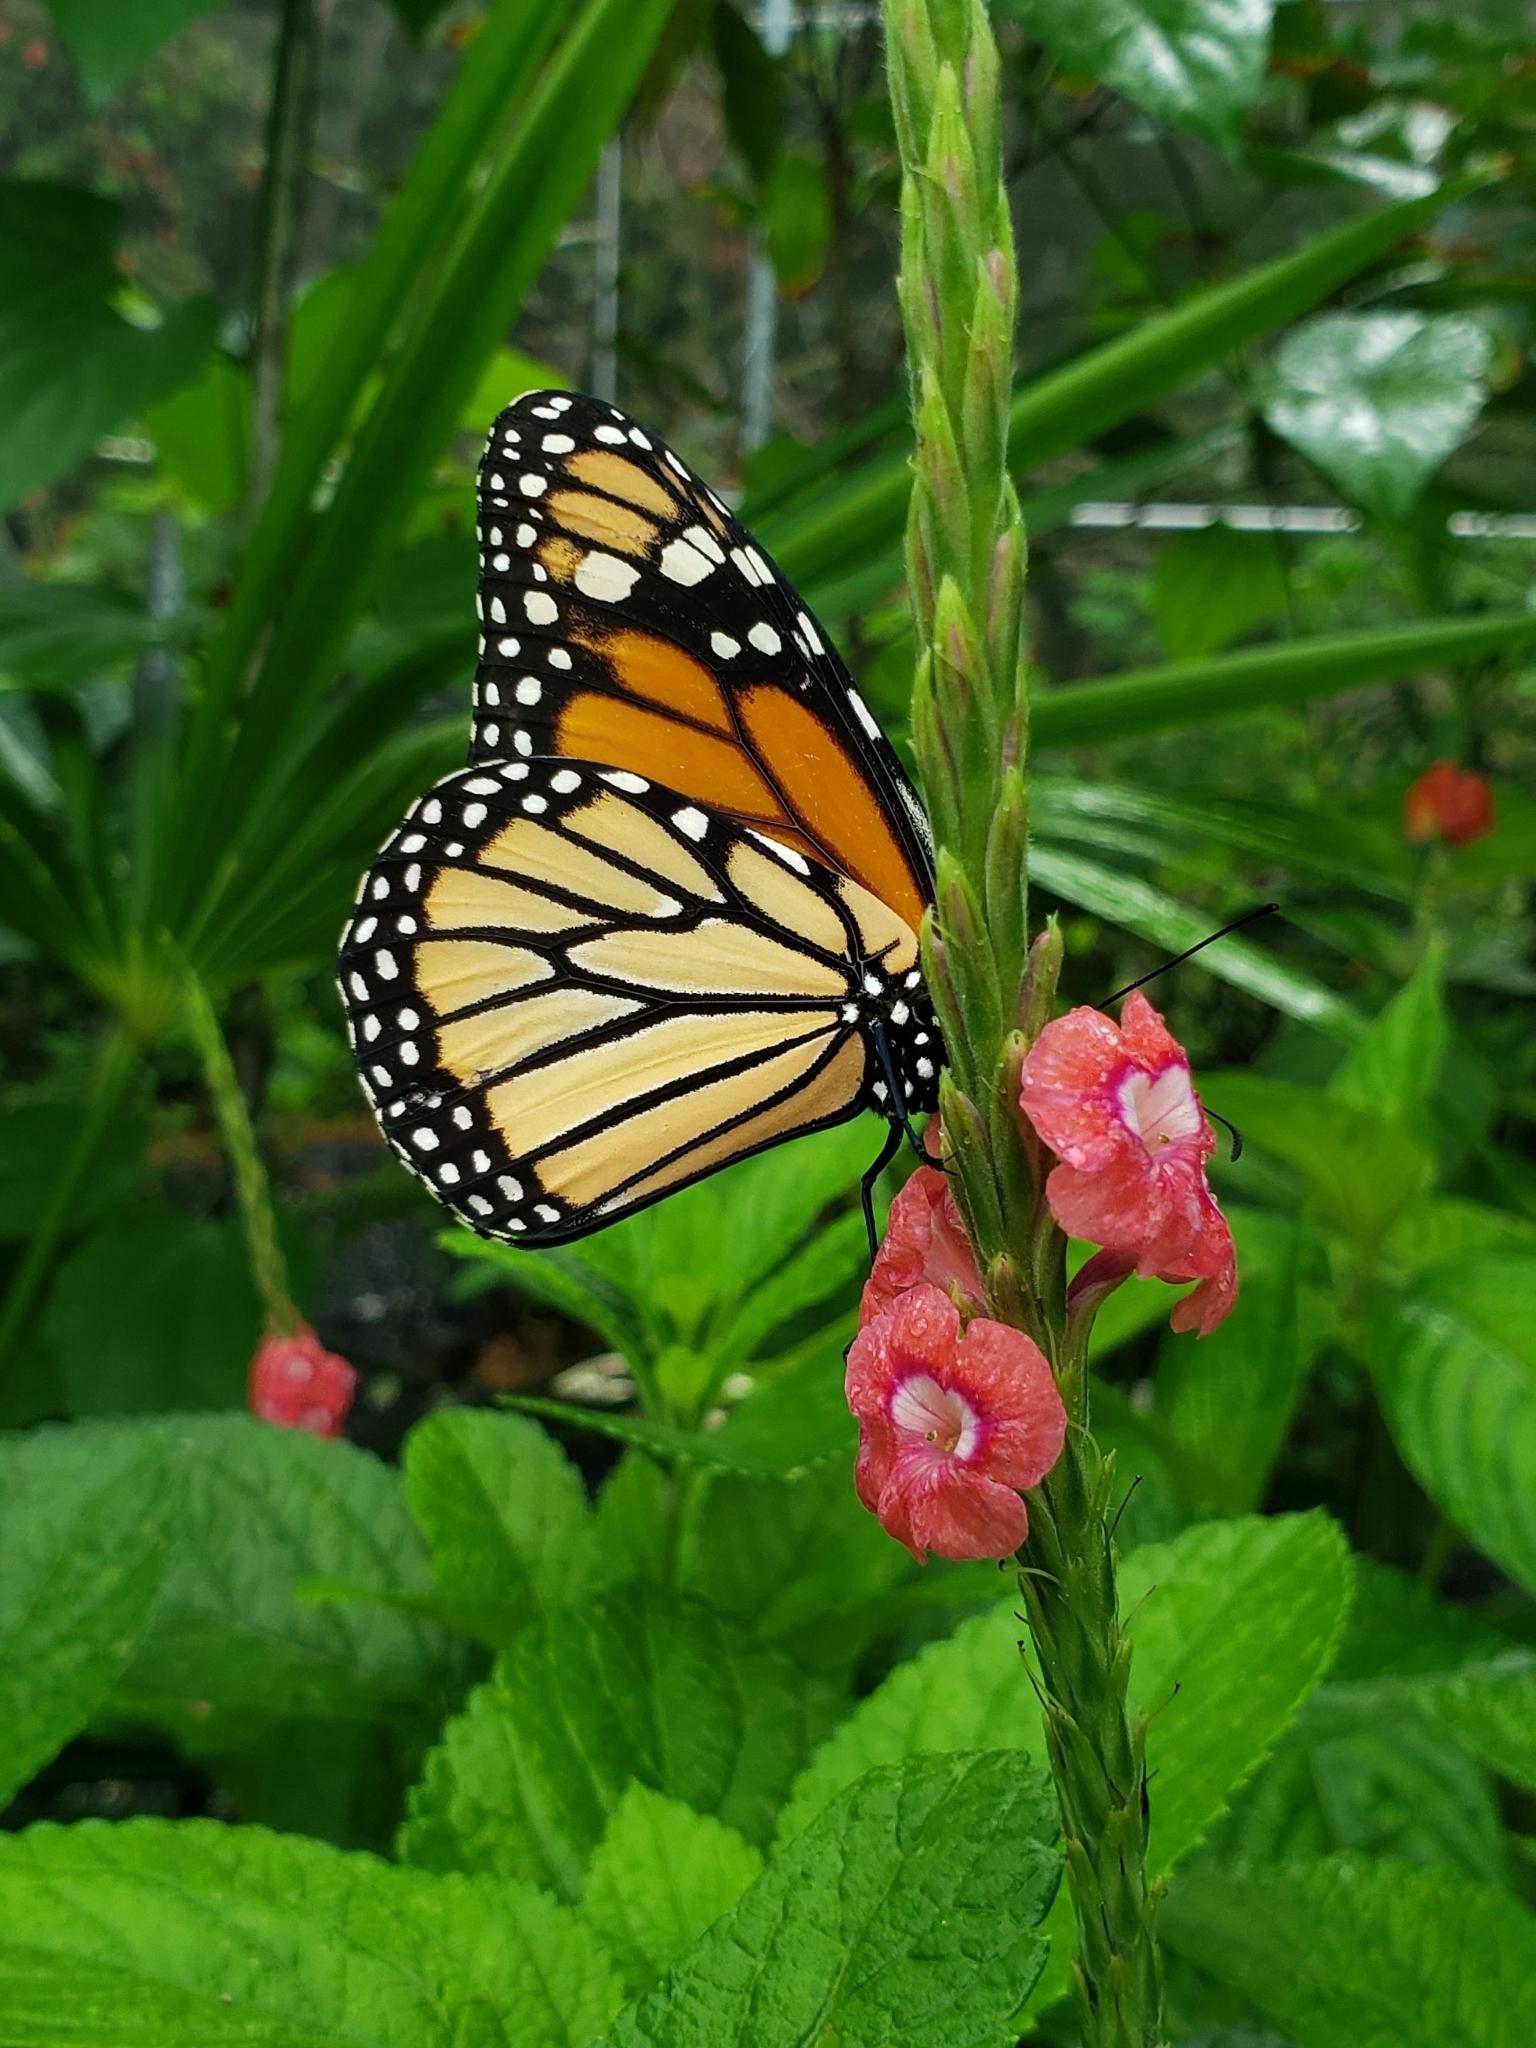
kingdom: Animalia
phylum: Arthropoda
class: Insecta
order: Lepidoptera
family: Nymphalidae
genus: Danaus
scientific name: Danaus plexippus
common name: Monarch
